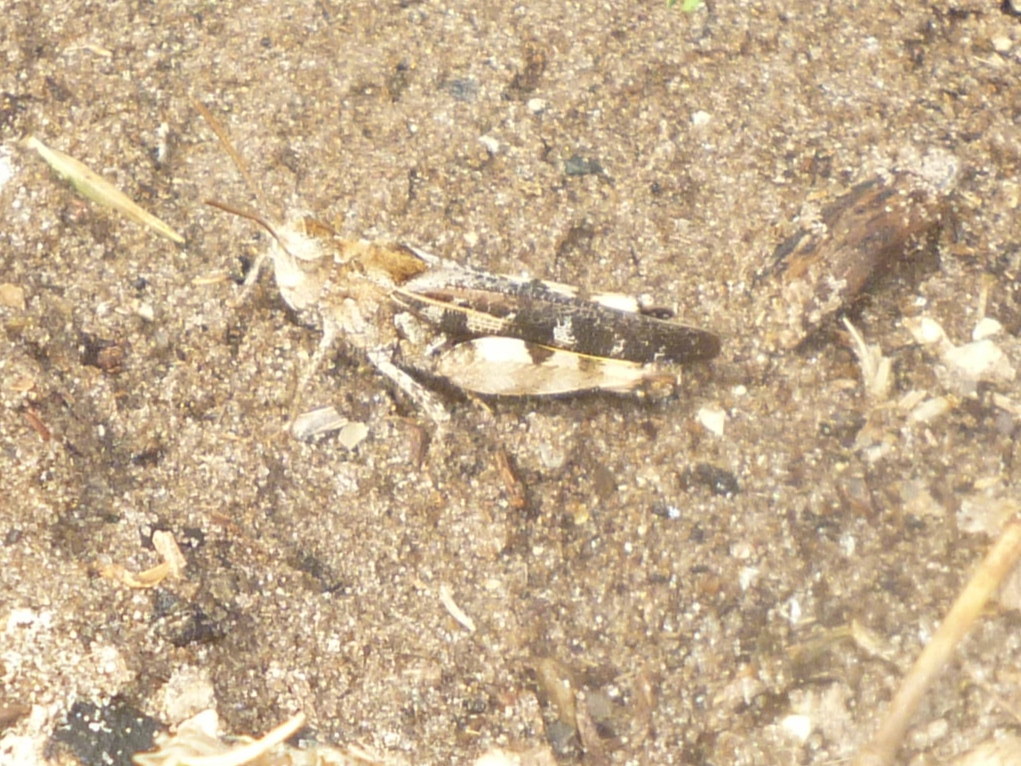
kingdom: Animalia
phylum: Arthropoda
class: Insecta
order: Orthoptera
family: Acrididae
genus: Chortophaga
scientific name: Chortophaga australior
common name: Southern green-striped grasshopper
